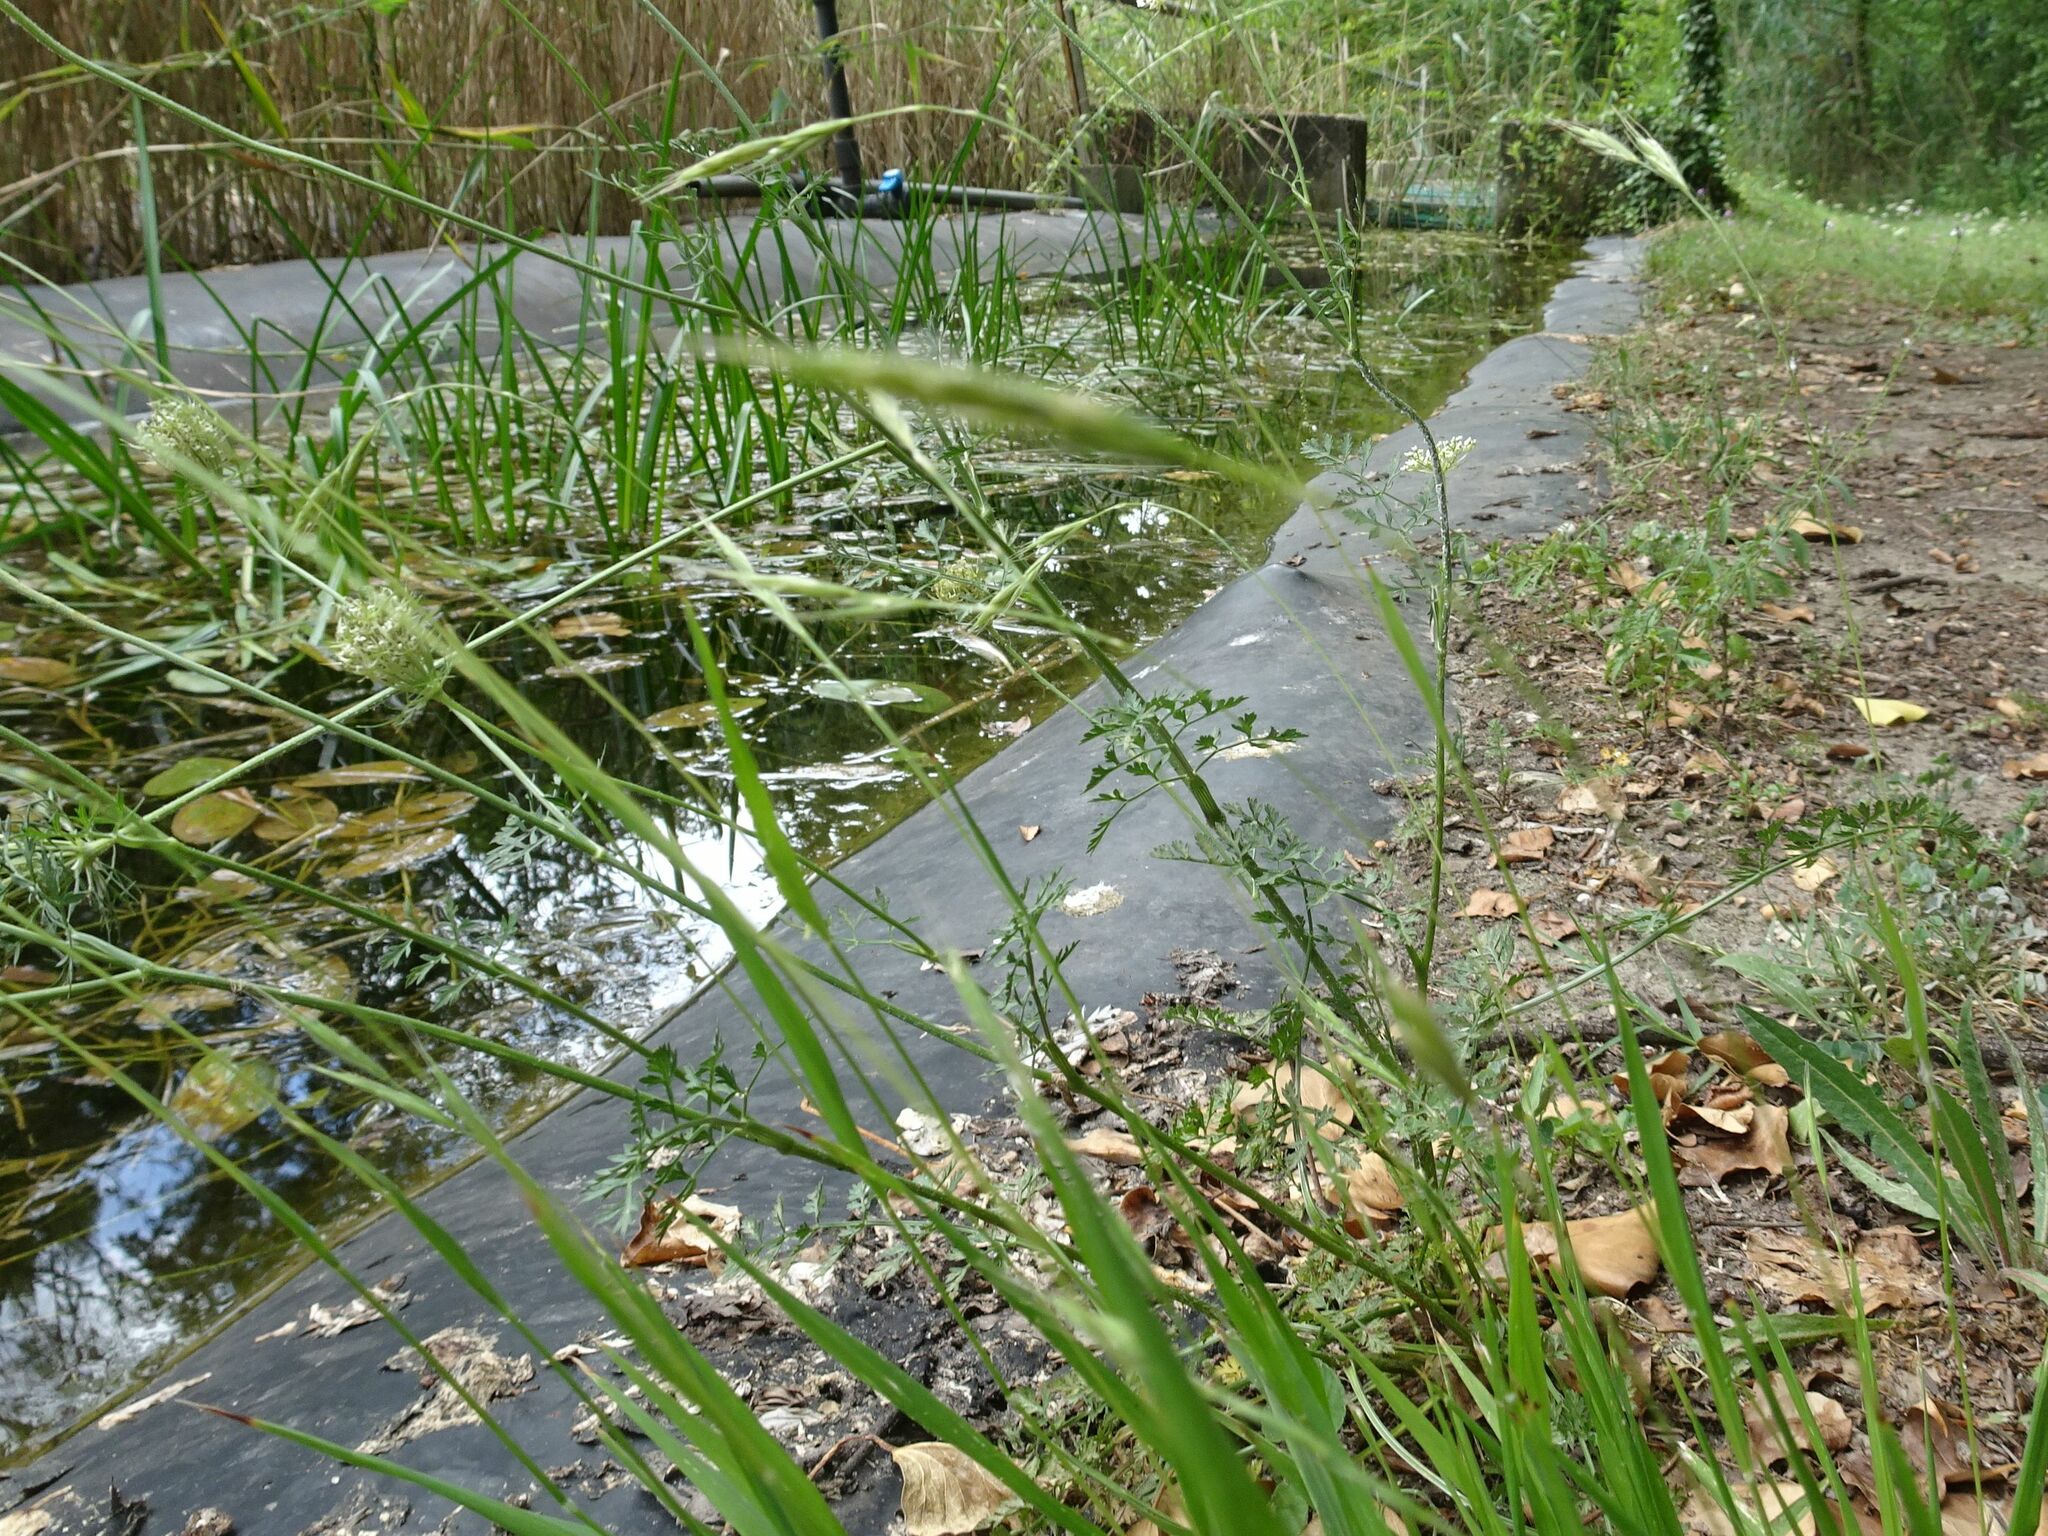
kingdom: Plantae
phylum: Tracheophyta
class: Liliopsida
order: Poales
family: Poaceae
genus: Brachypodium
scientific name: Brachypodium sylvaticum
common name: False-brome
